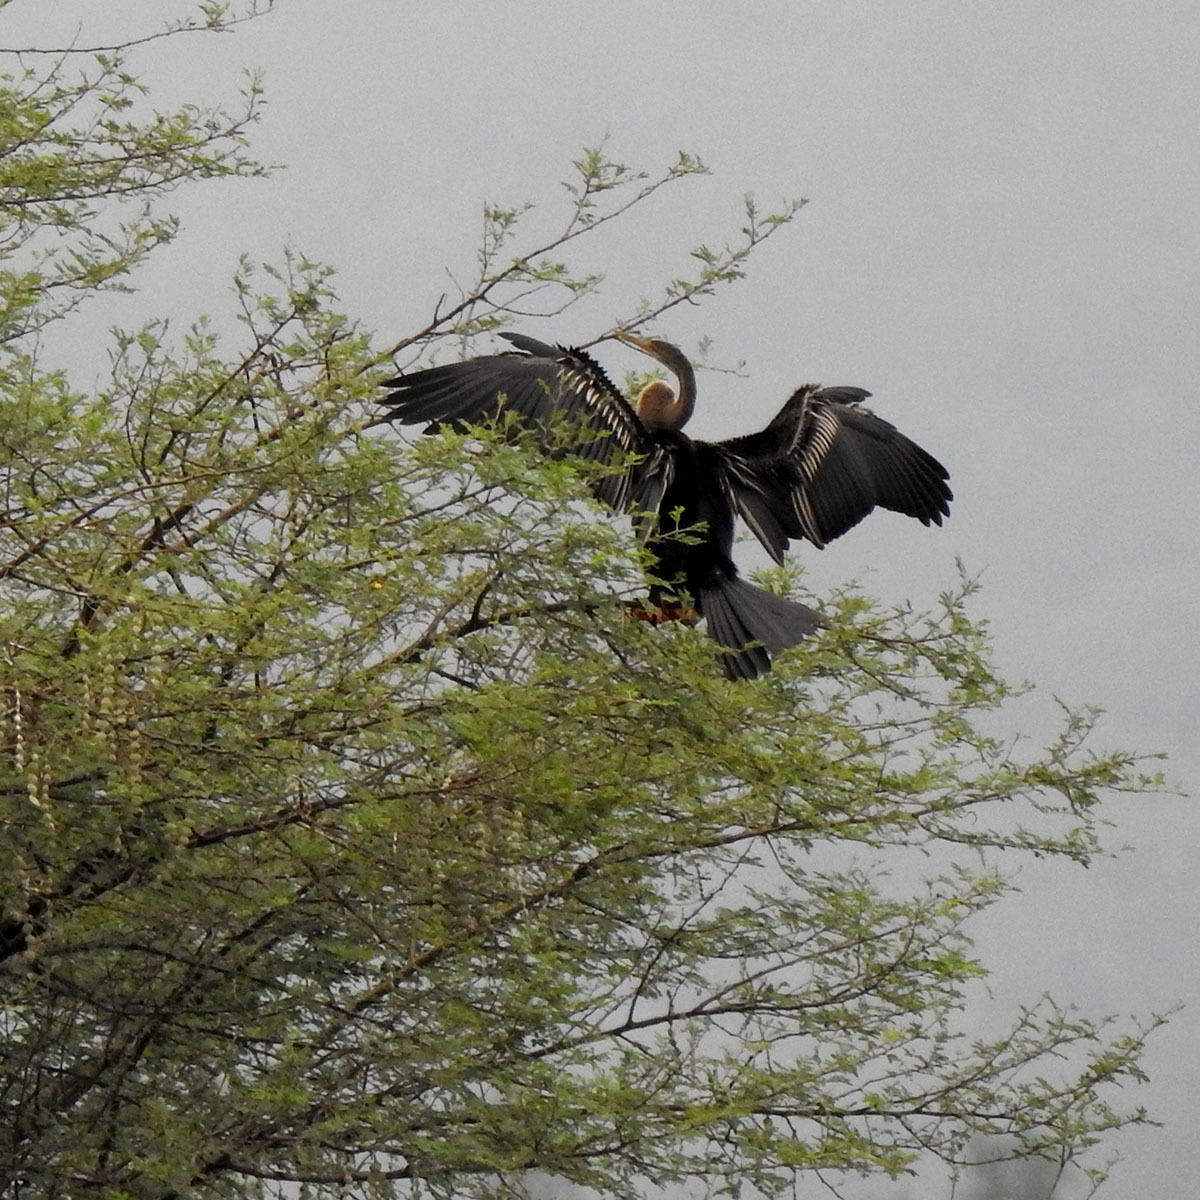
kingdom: Animalia
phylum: Chordata
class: Aves
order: Suliformes
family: Anhingidae
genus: Anhinga
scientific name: Anhinga melanogaster
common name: Oriental darter
